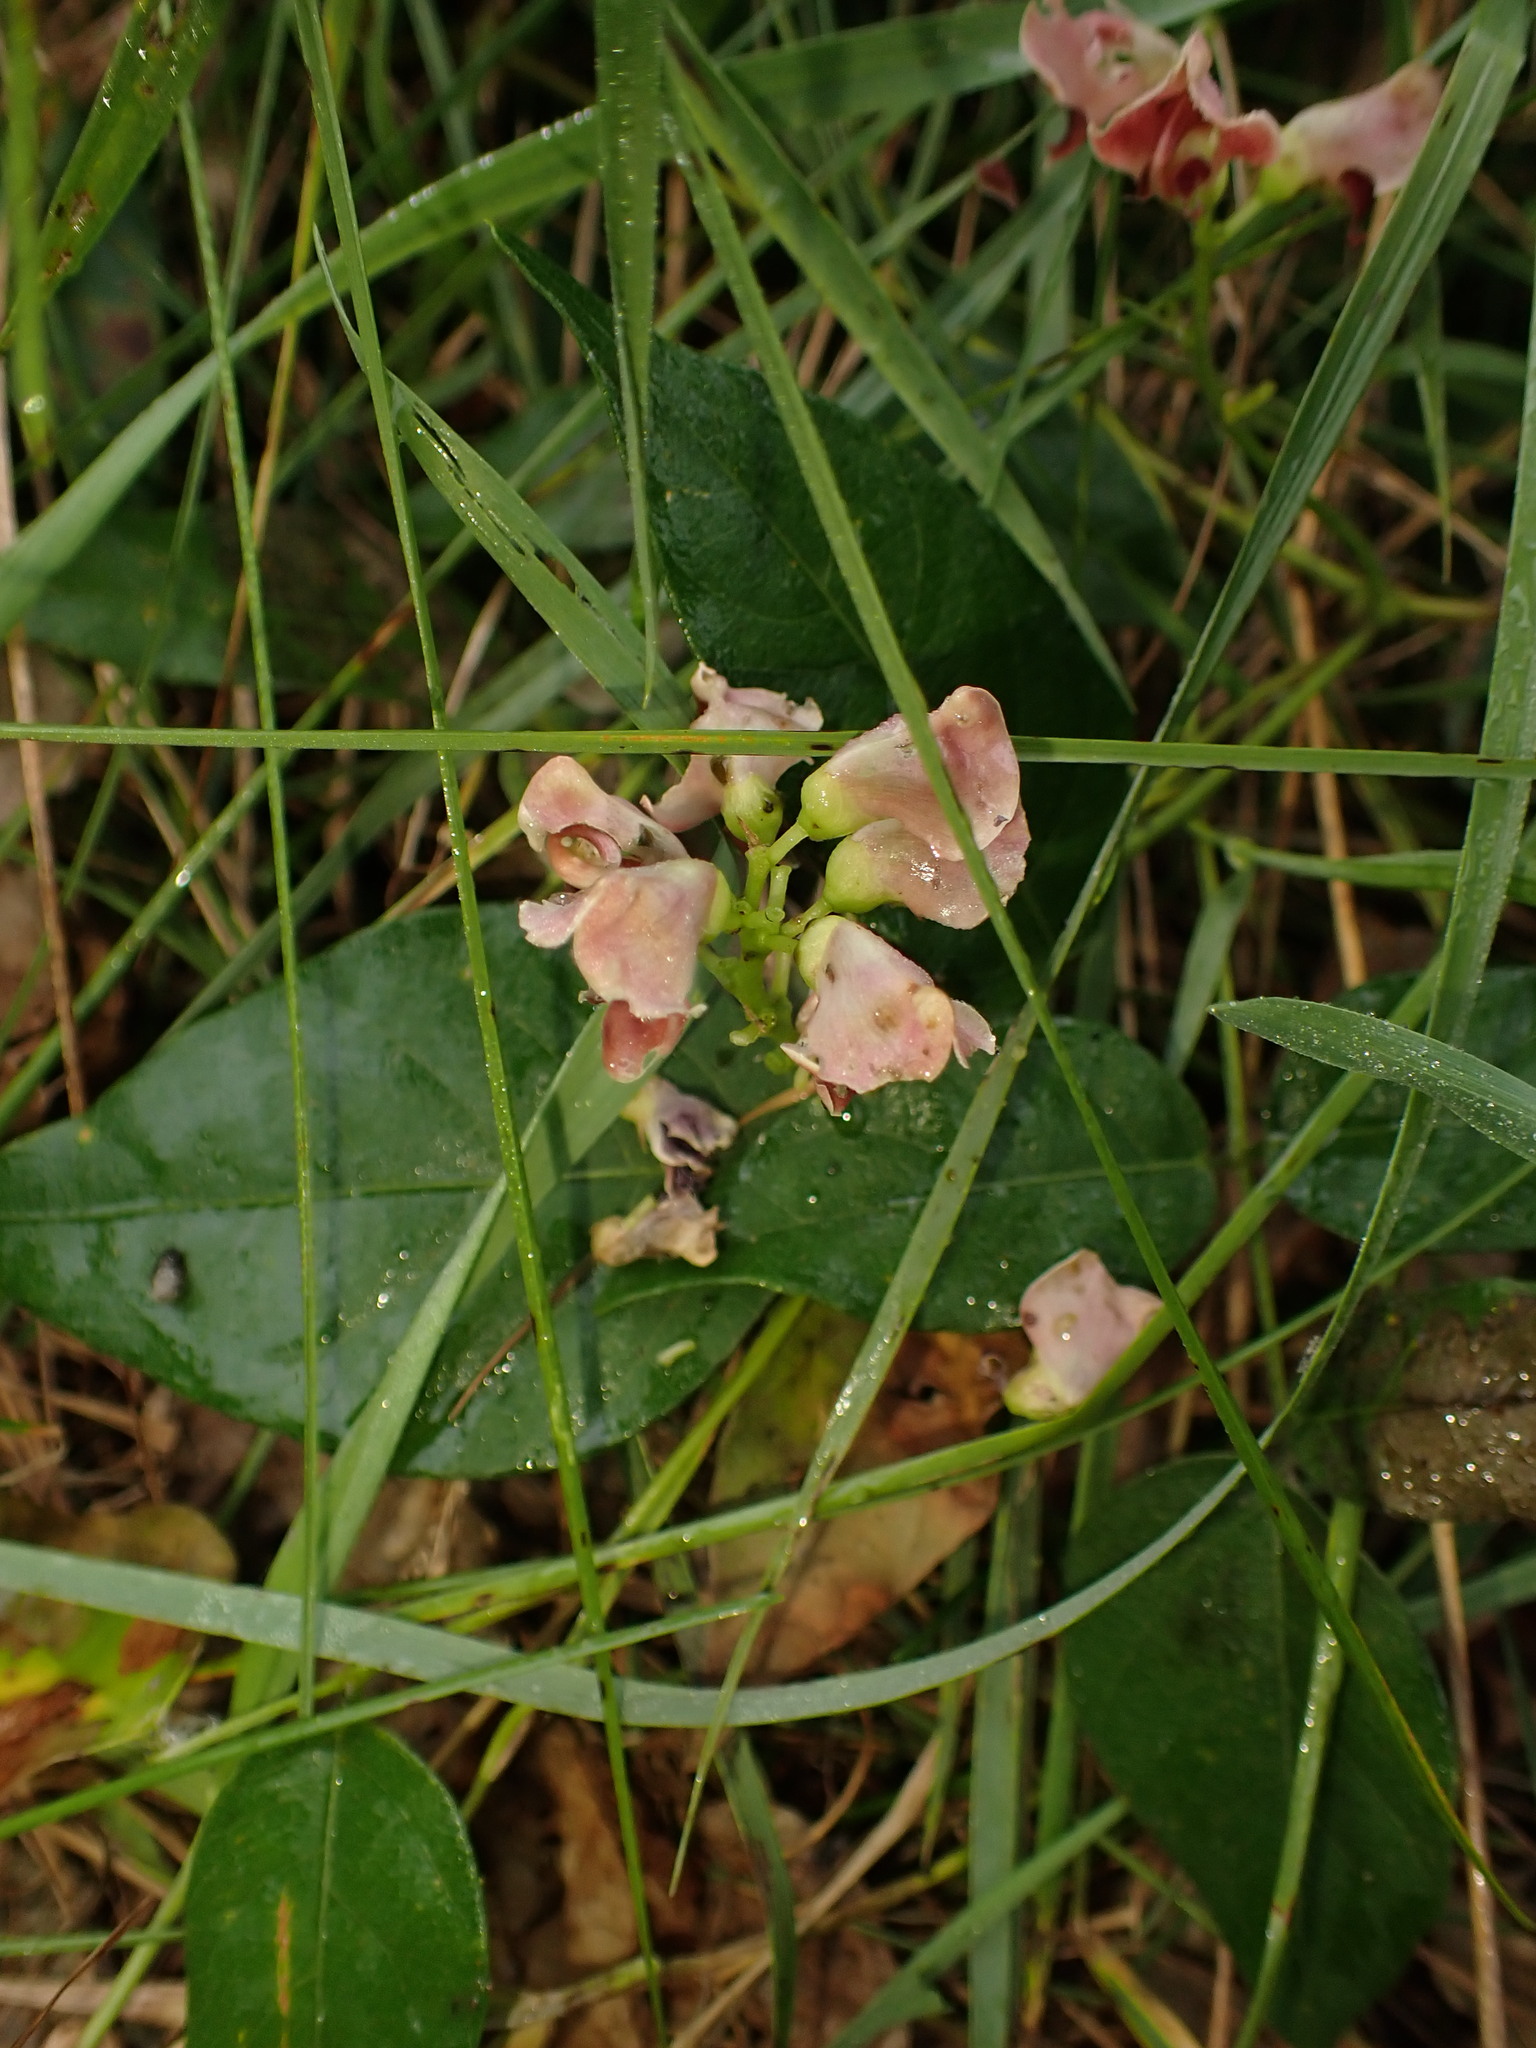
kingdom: Plantae
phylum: Tracheophyta
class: Magnoliopsida
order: Fabales
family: Fabaceae
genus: Apios
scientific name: Apios americana
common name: American potato-bean
